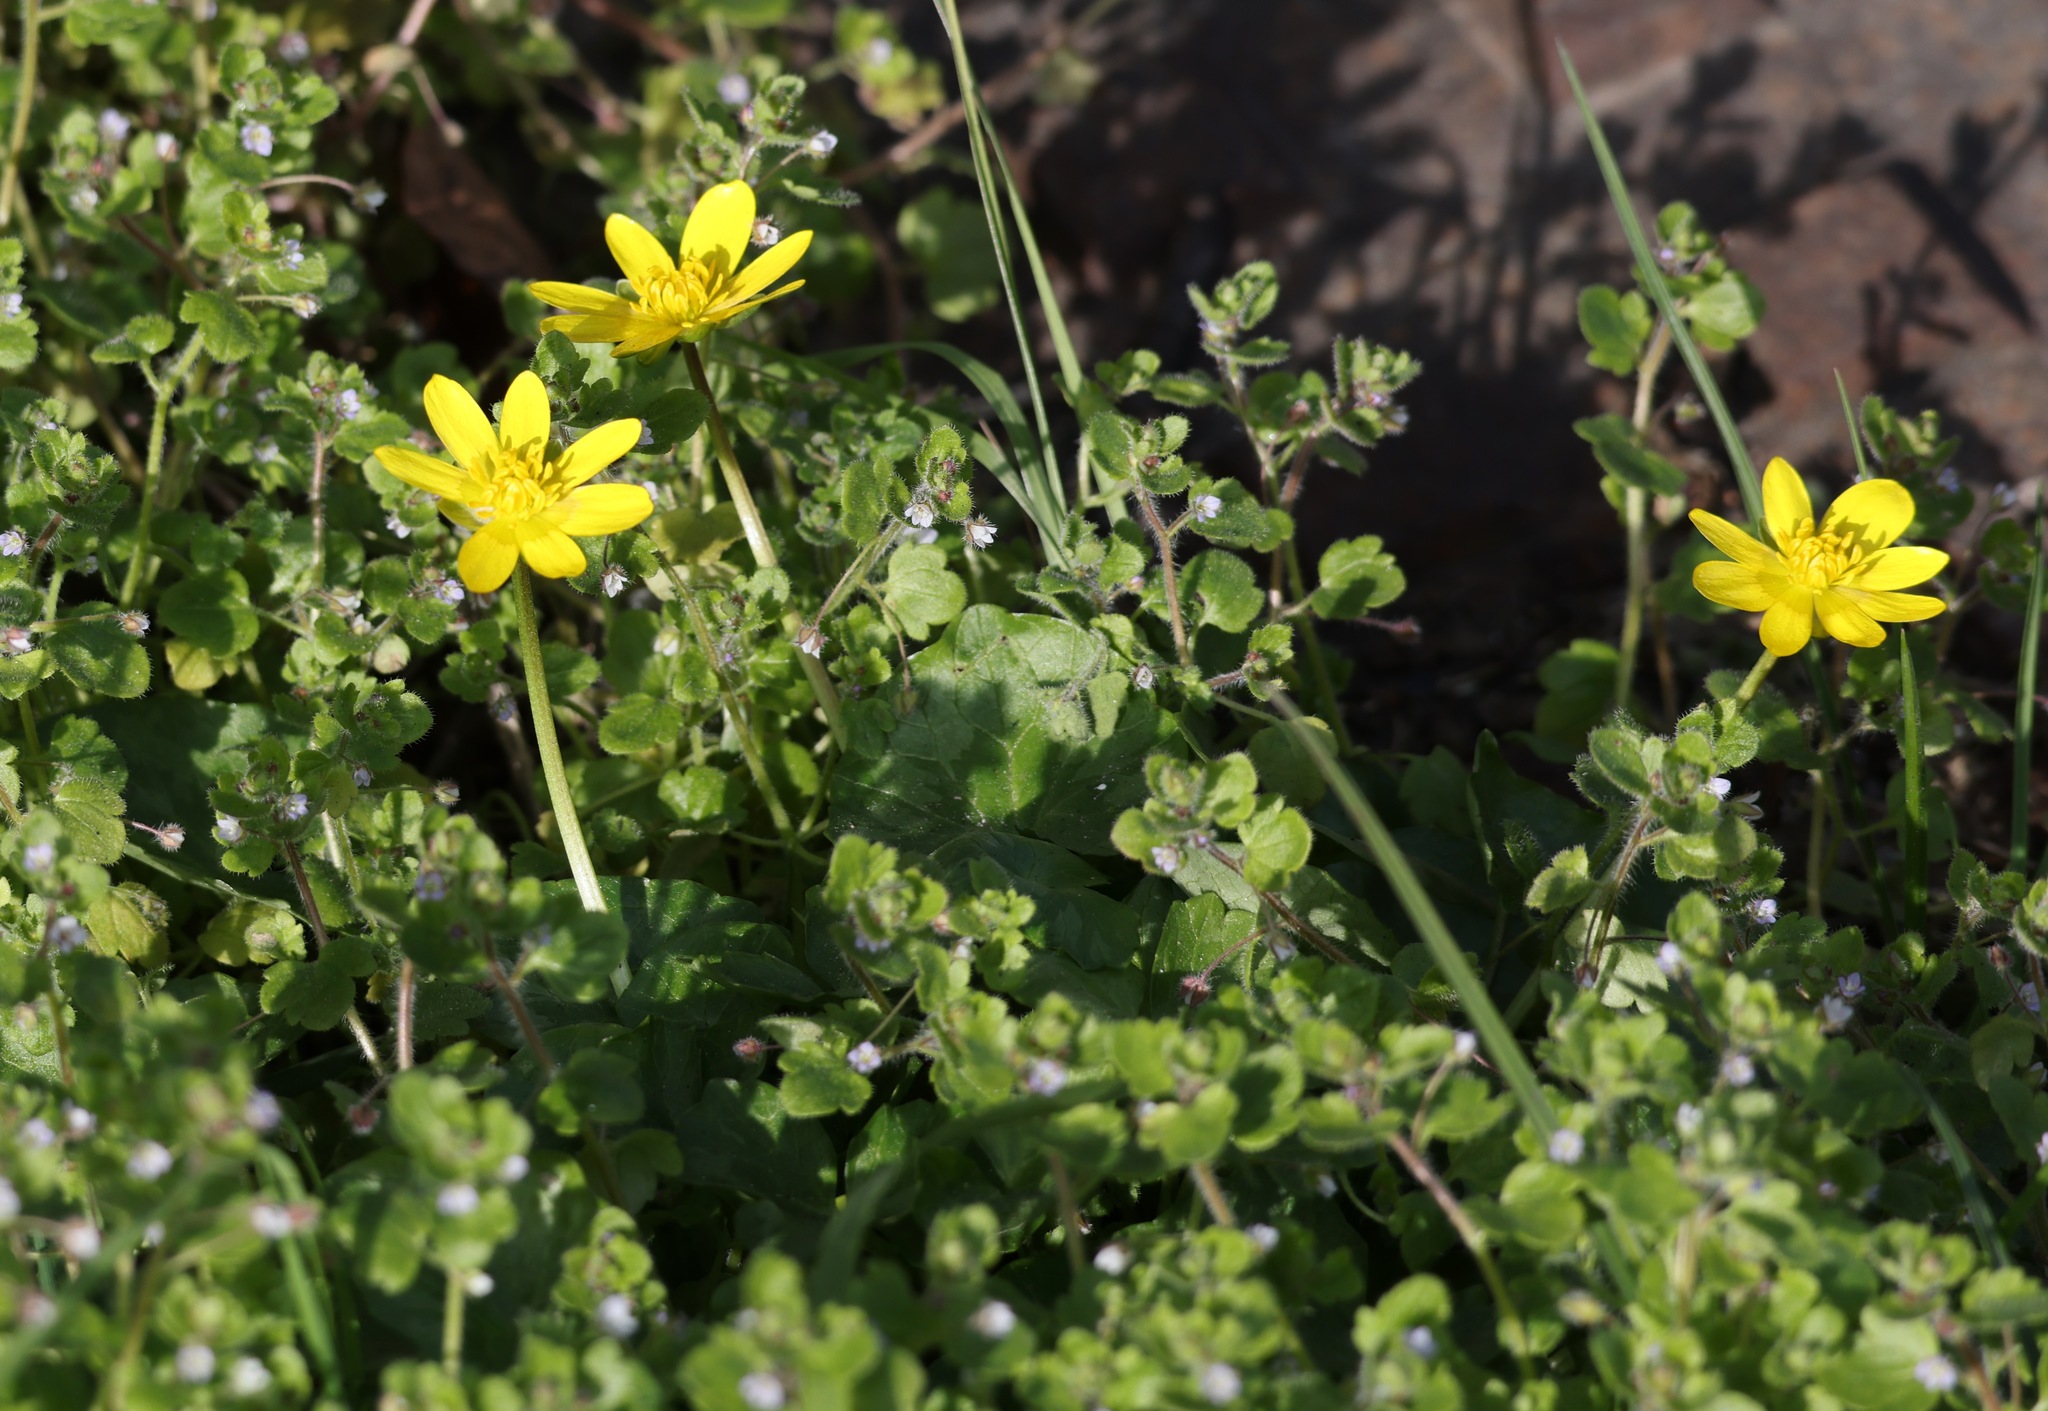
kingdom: Plantae
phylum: Tracheophyta
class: Magnoliopsida
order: Ranunculales
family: Ranunculaceae
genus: Ficaria
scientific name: Ficaria verna
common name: Lesser celandine
